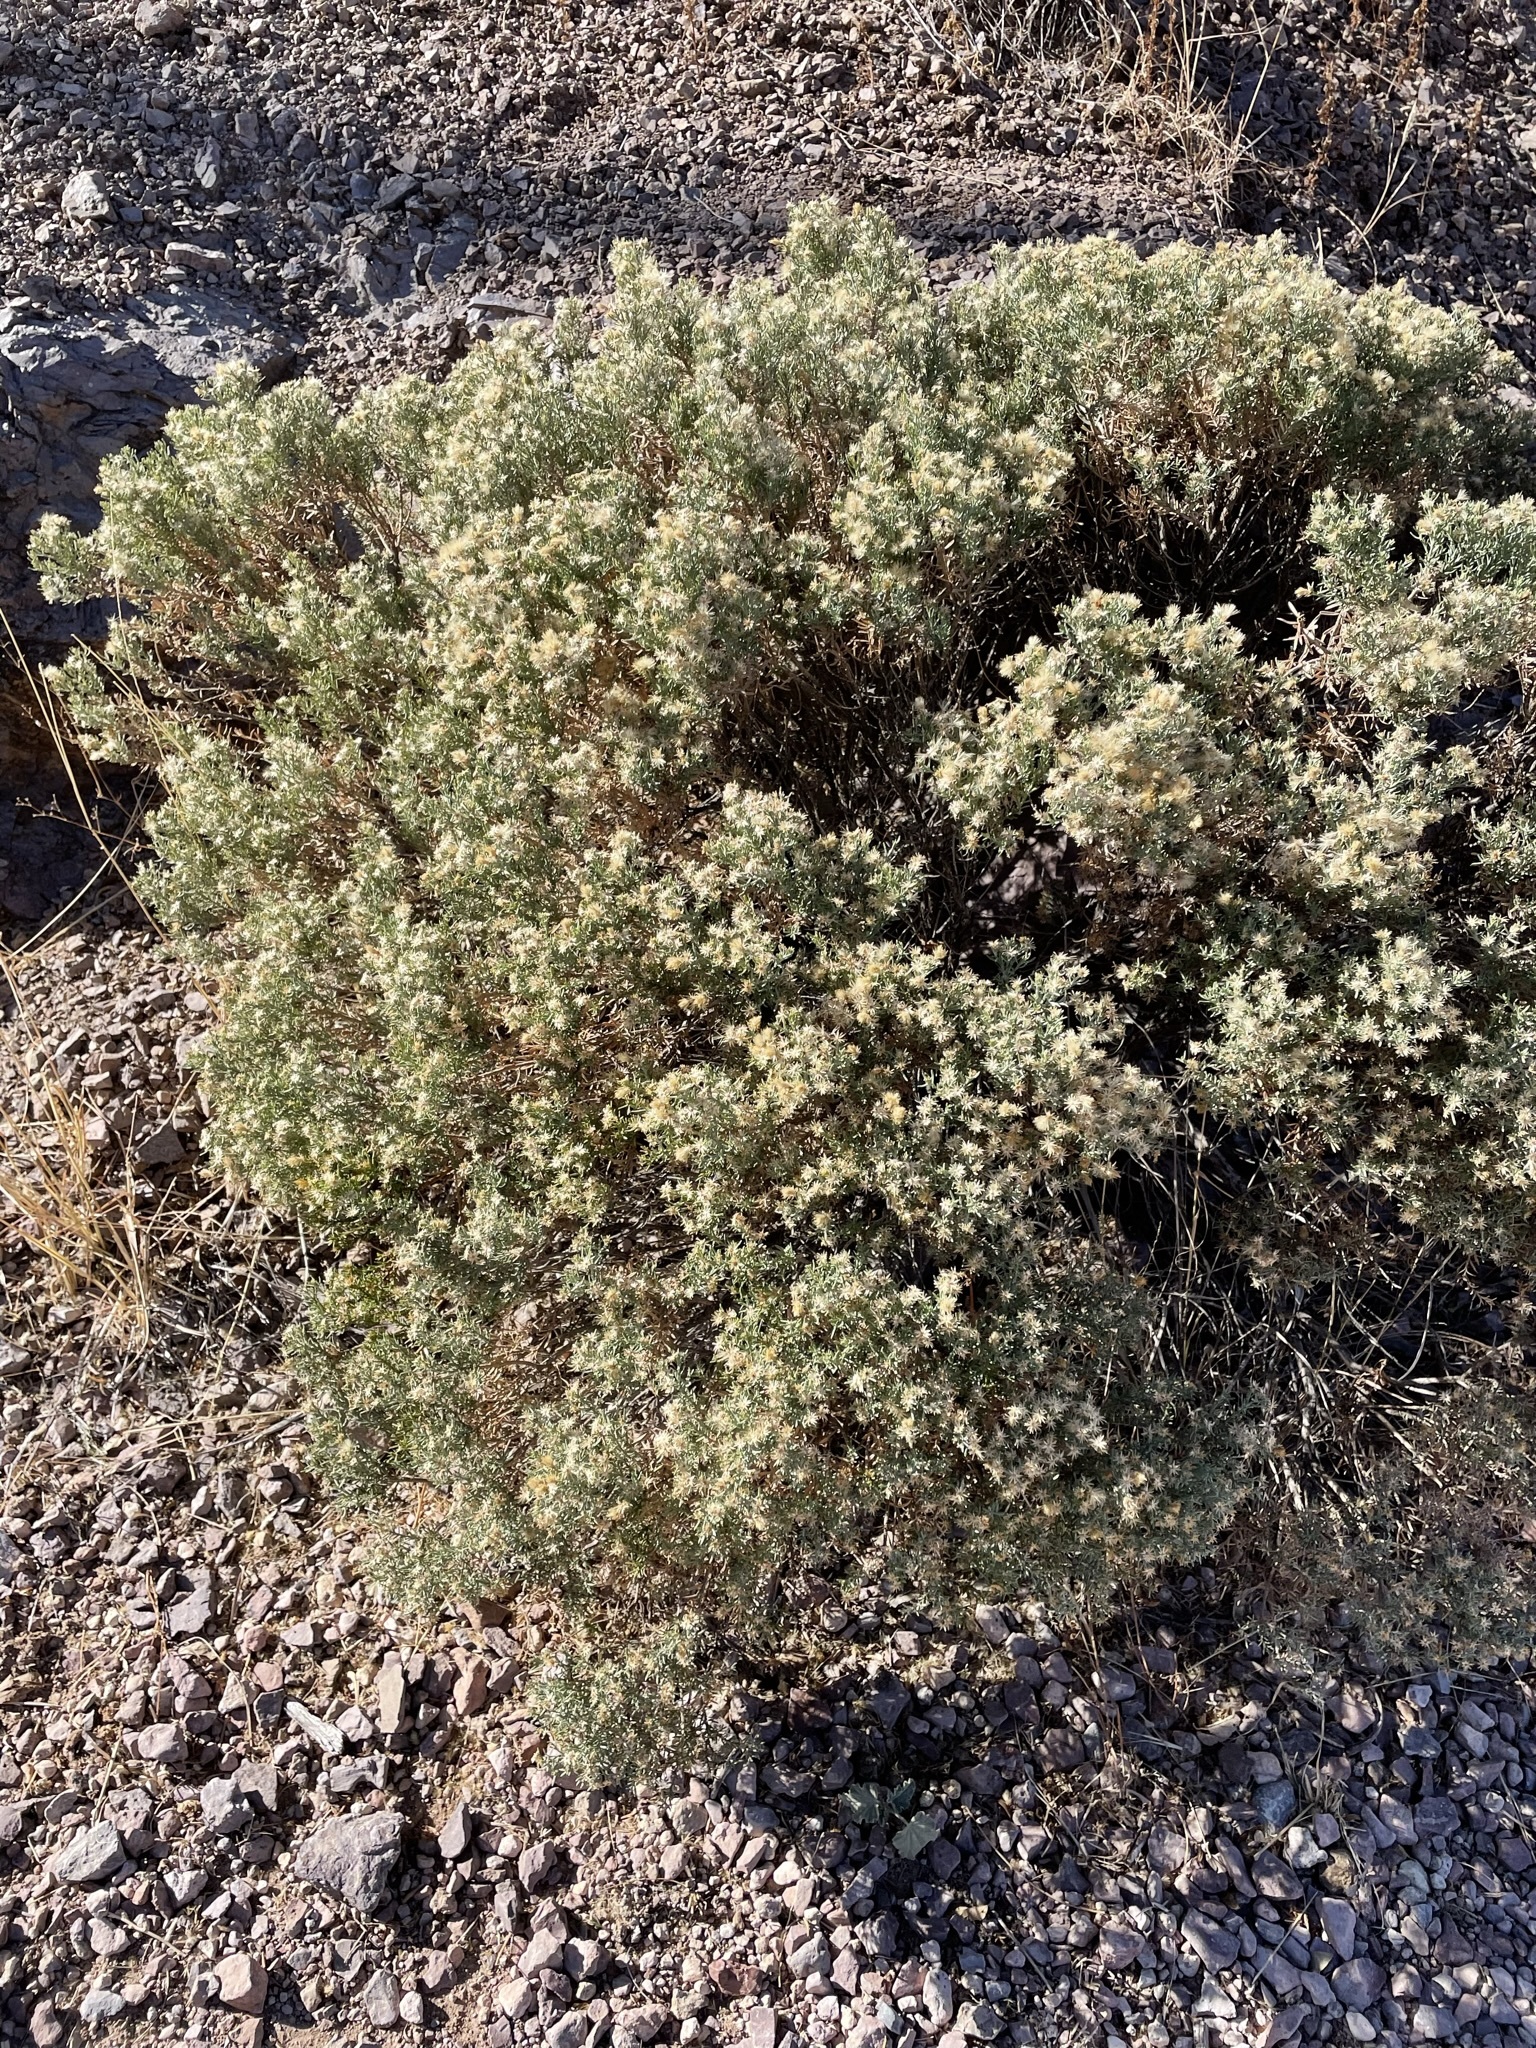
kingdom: Plantae
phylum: Tracheophyta
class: Magnoliopsida
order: Asterales
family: Asteraceae
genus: Ericameria
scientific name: Ericameria laricifolia
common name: Turpentine-bush
